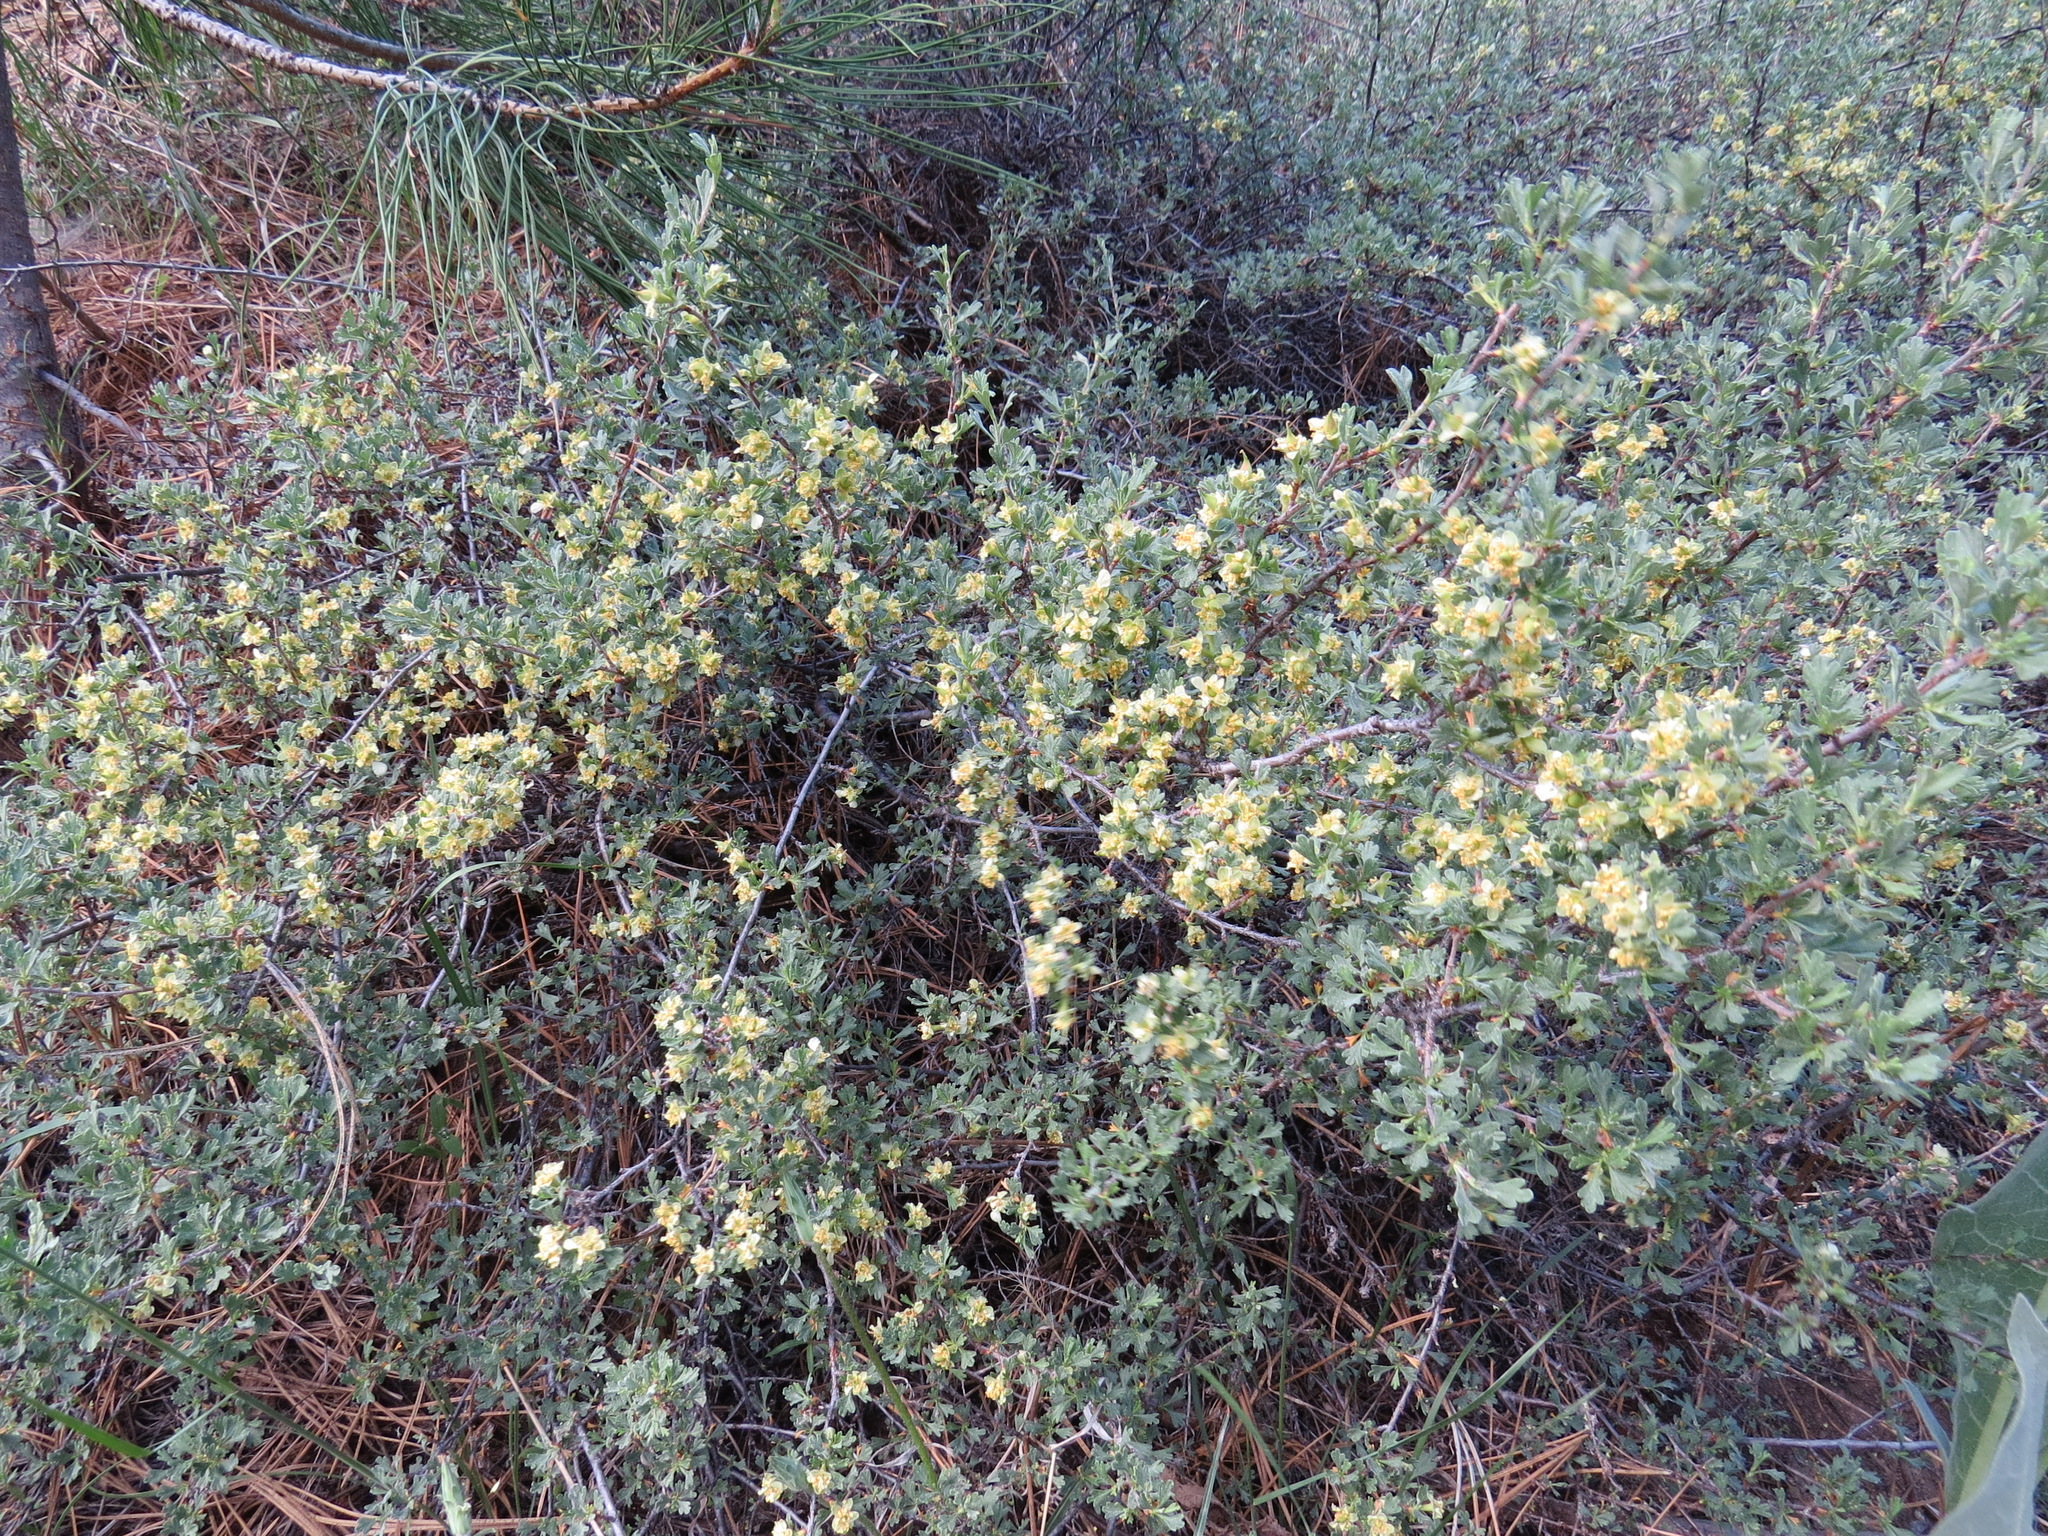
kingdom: Plantae
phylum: Tracheophyta
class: Magnoliopsida
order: Rosales
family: Rosaceae
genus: Purshia
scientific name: Purshia tridentata
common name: Antelope bitterbrush
